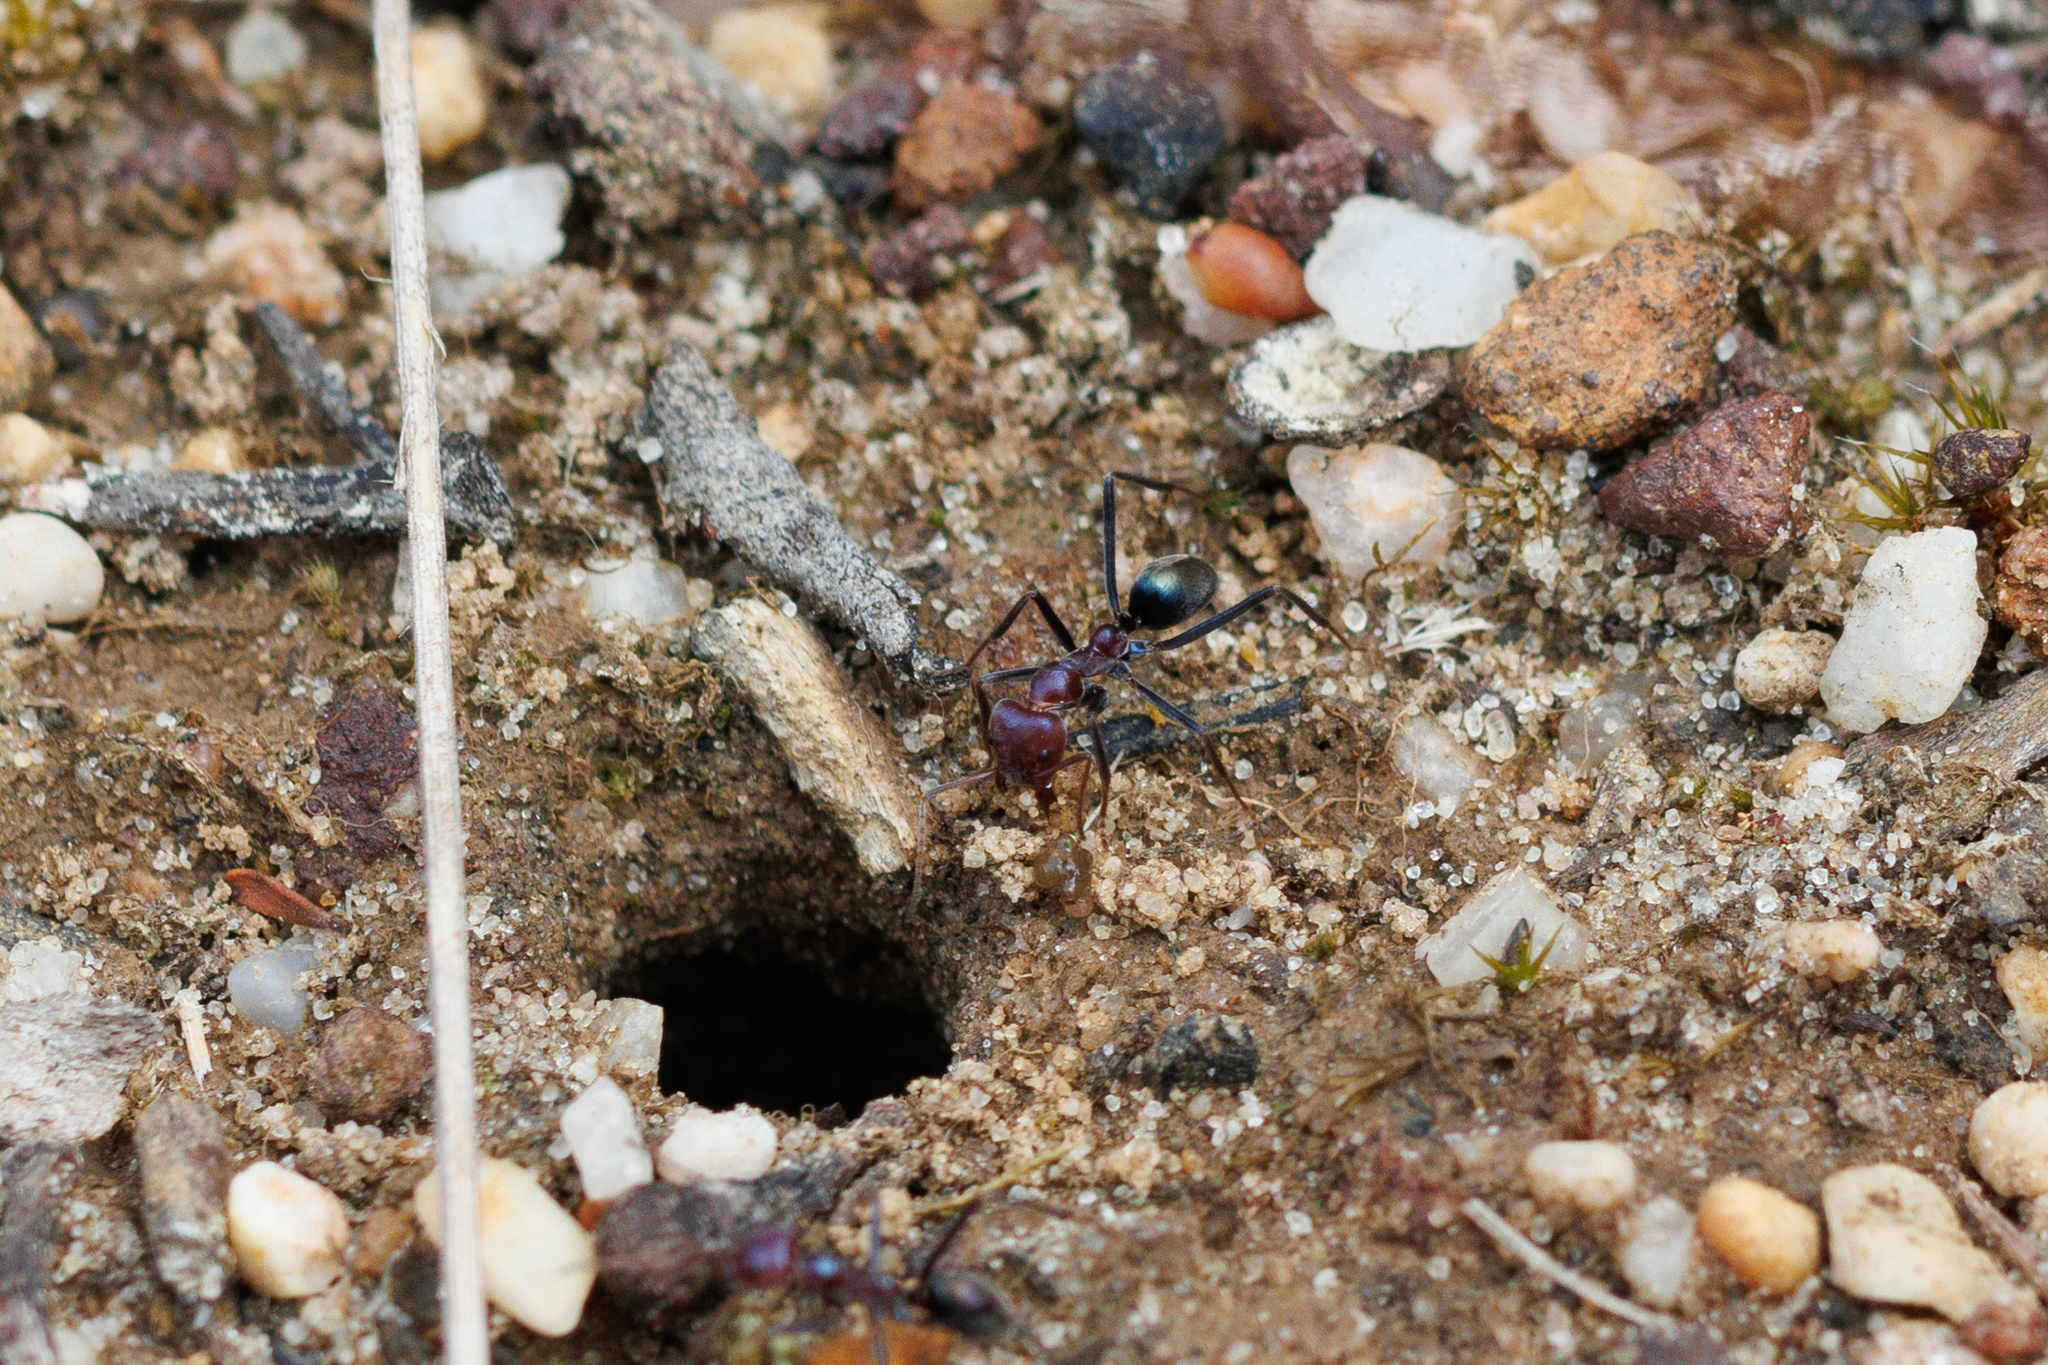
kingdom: Animalia
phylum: Arthropoda
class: Insecta
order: Hymenoptera
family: Formicidae
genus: Iridomyrmex
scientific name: Iridomyrmex purpureus
